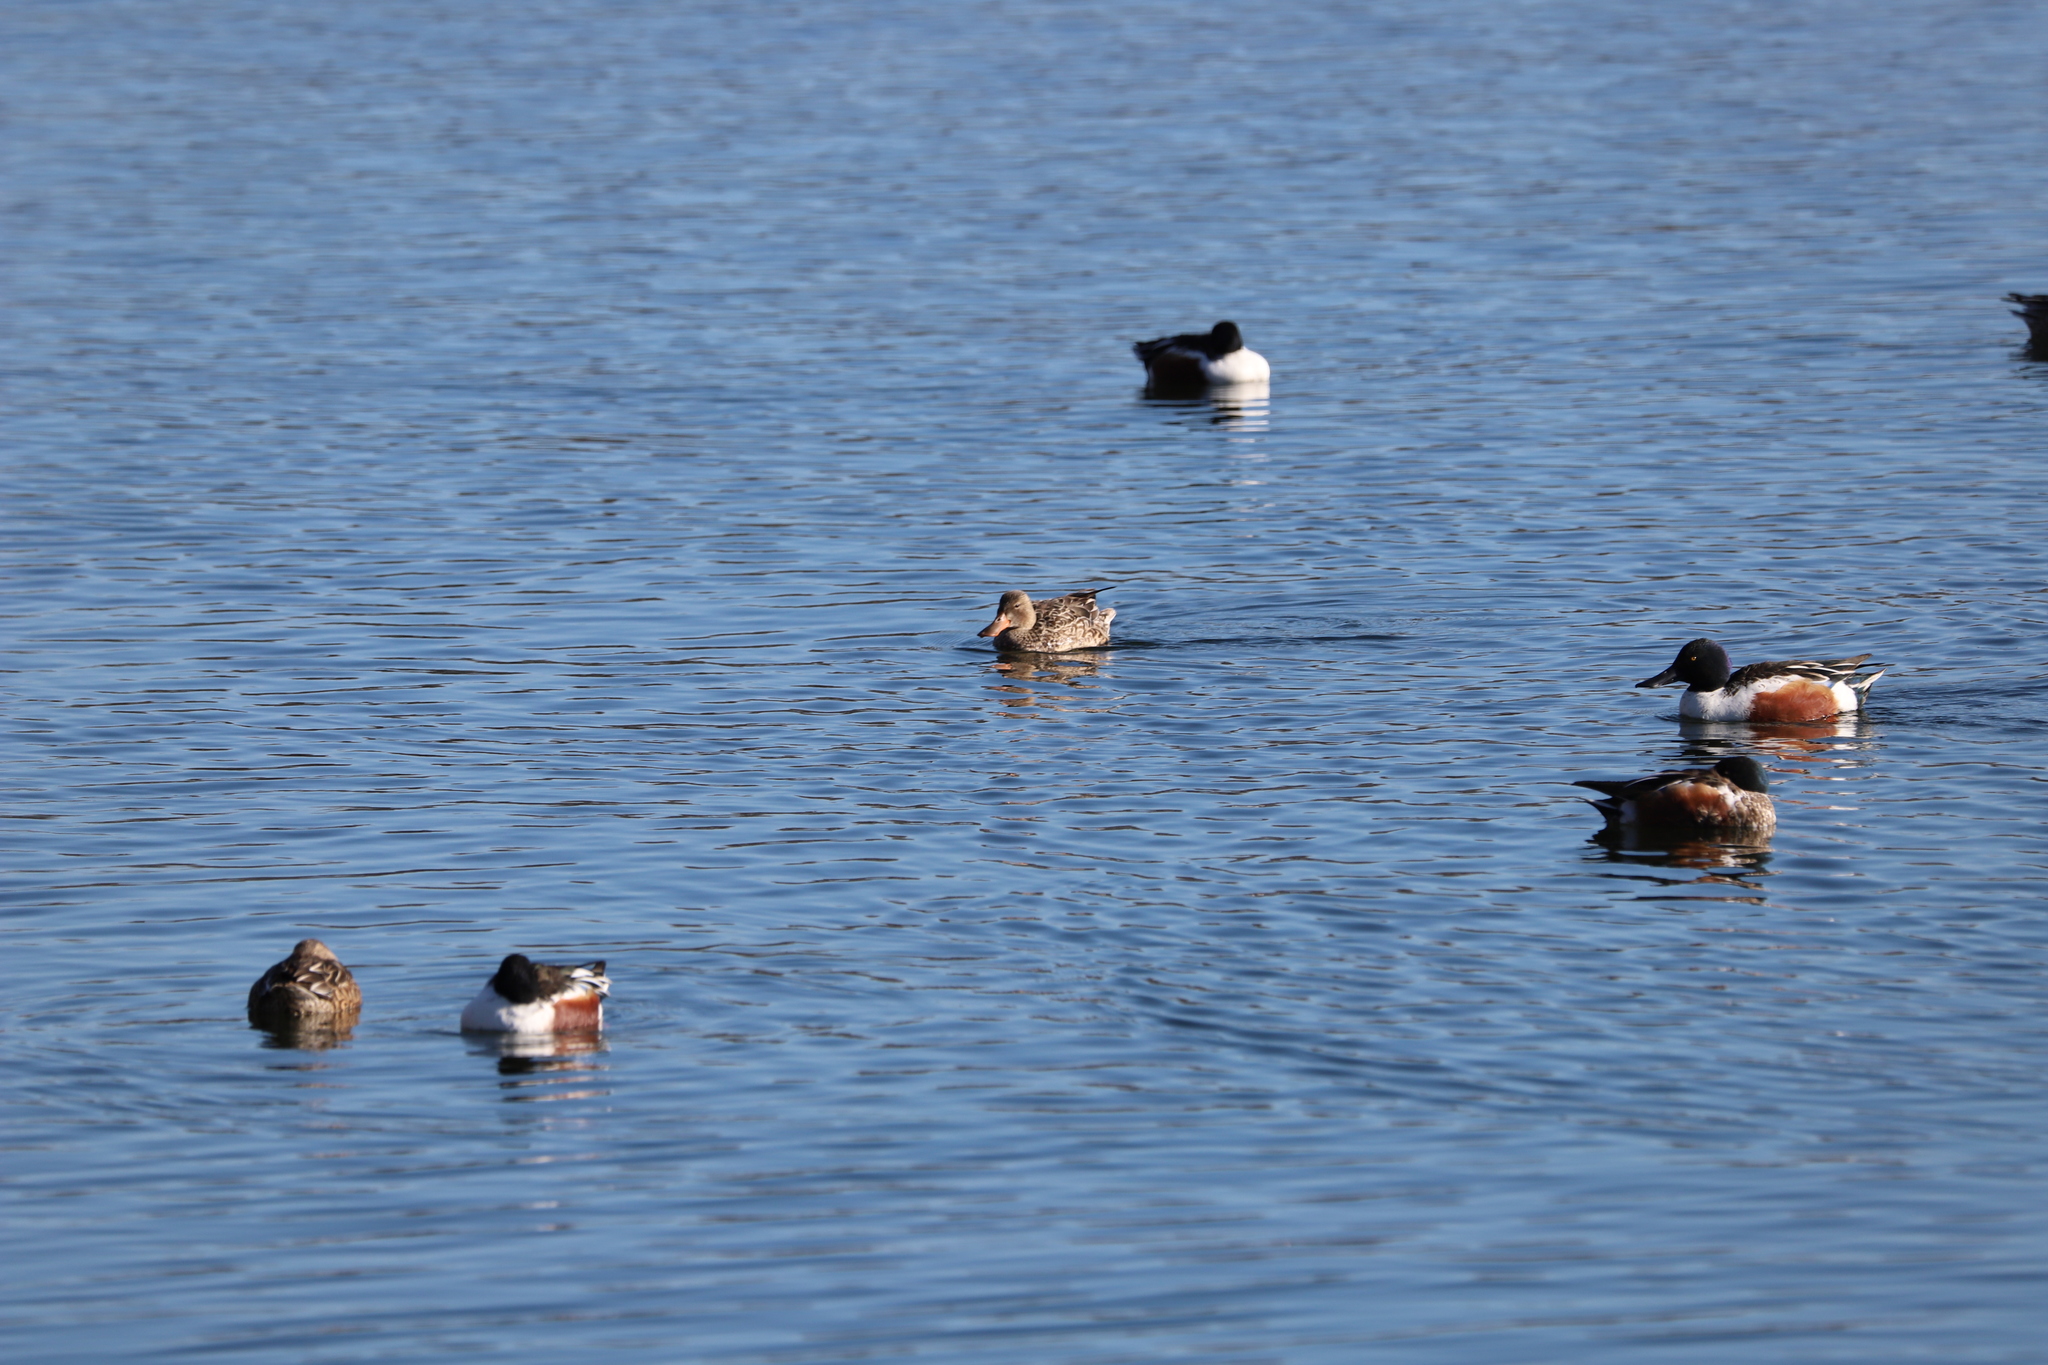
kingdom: Animalia
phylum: Chordata
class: Aves
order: Anseriformes
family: Anatidae
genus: Spatula
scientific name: Spatula clypeata
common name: Northern shoveler
